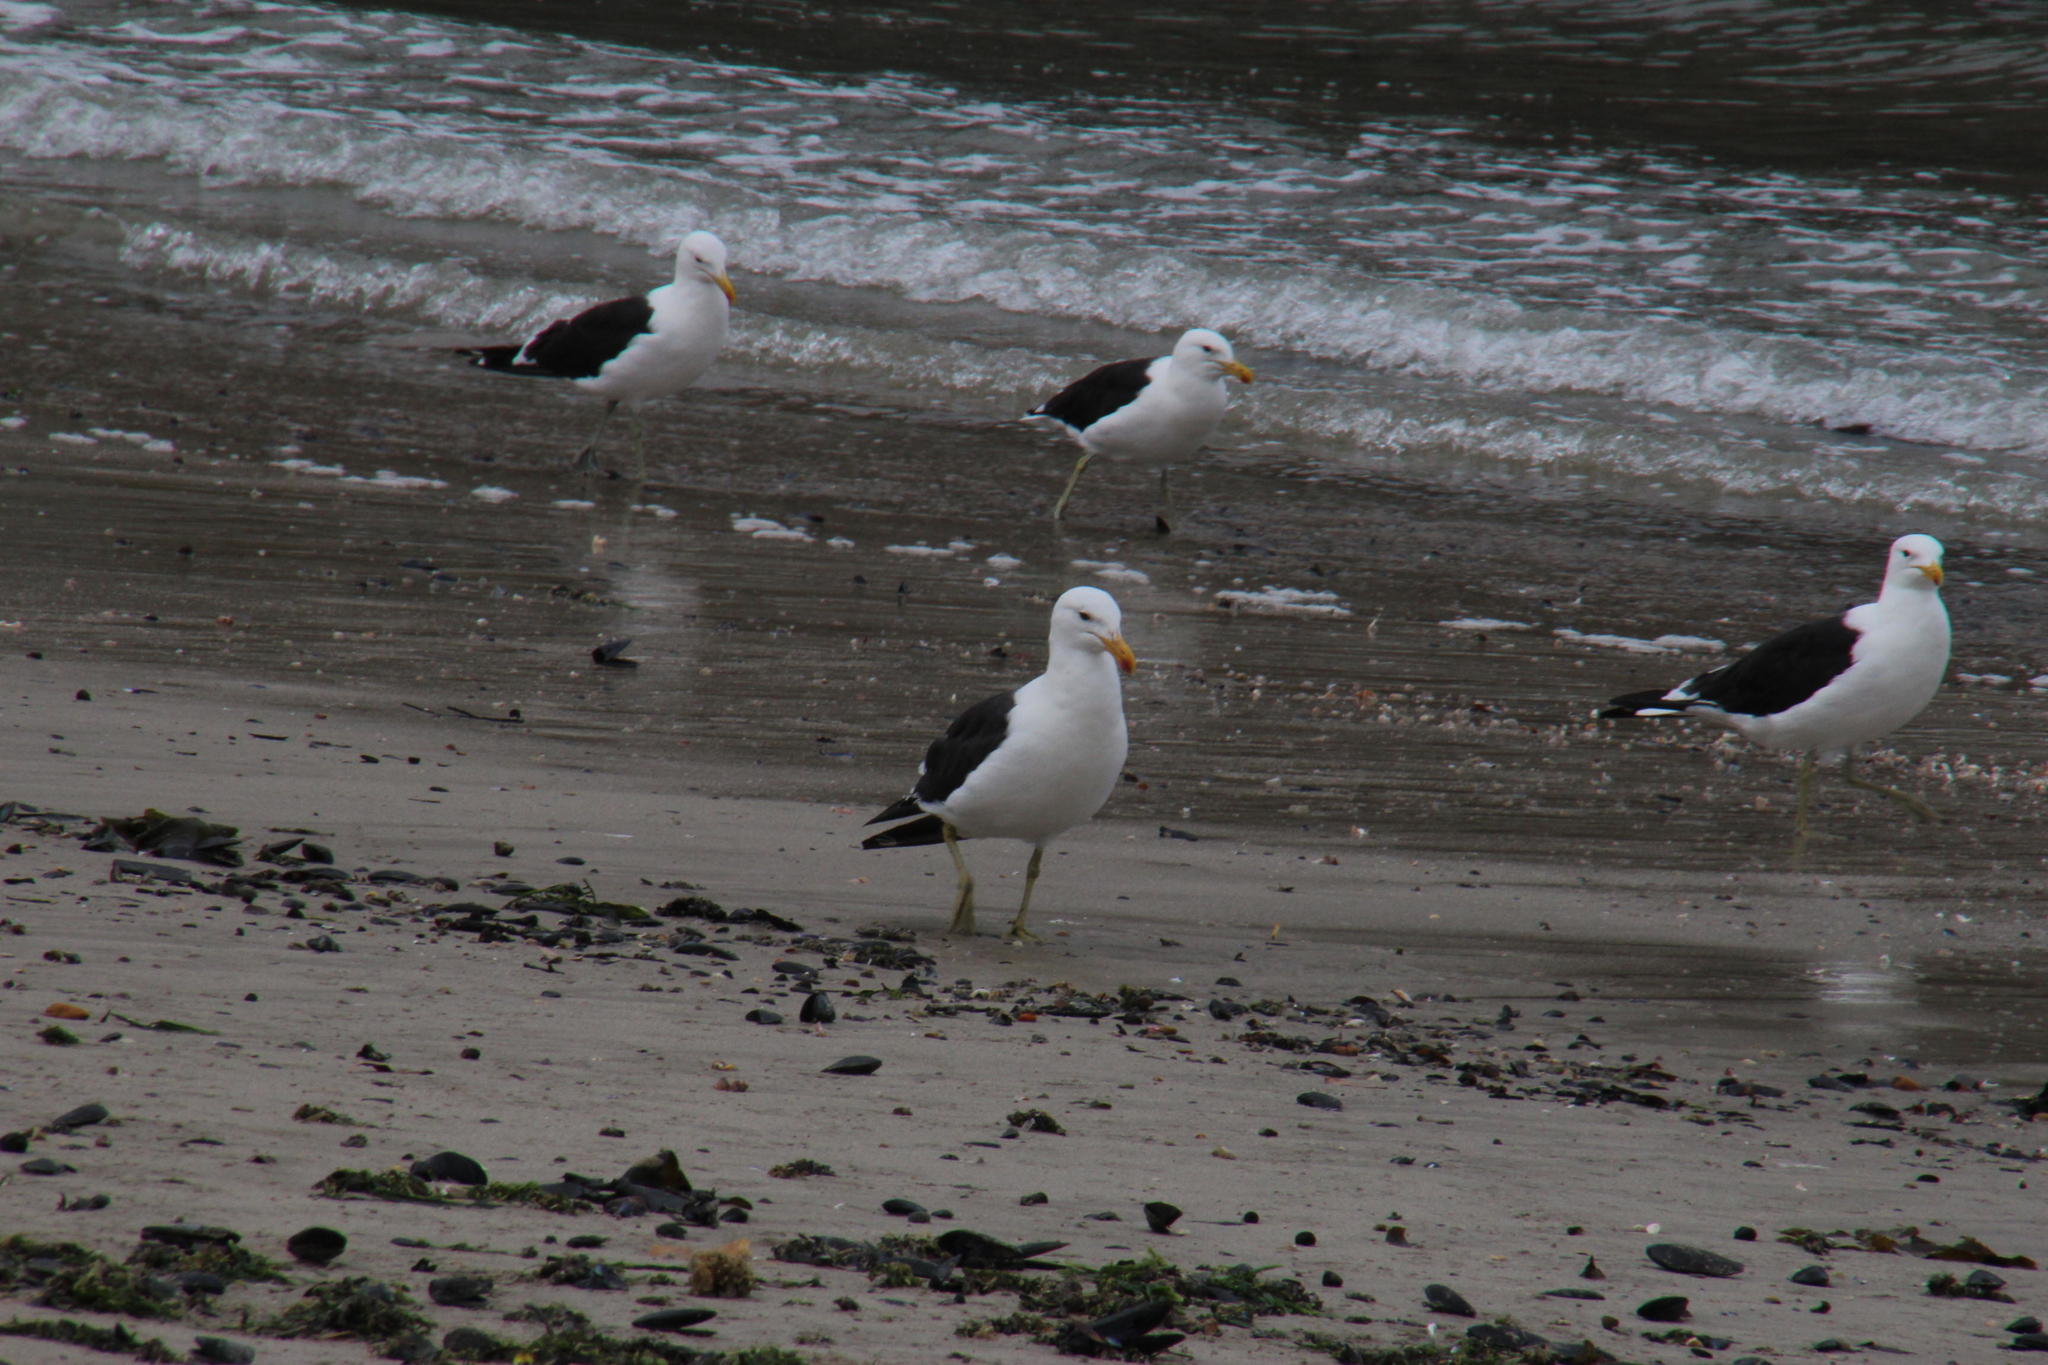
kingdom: Animalia
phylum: Chordata
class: Aves
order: Charadriiformes
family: Laridae
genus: Larus
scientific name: Larus dominicanus
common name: Kelp gull
